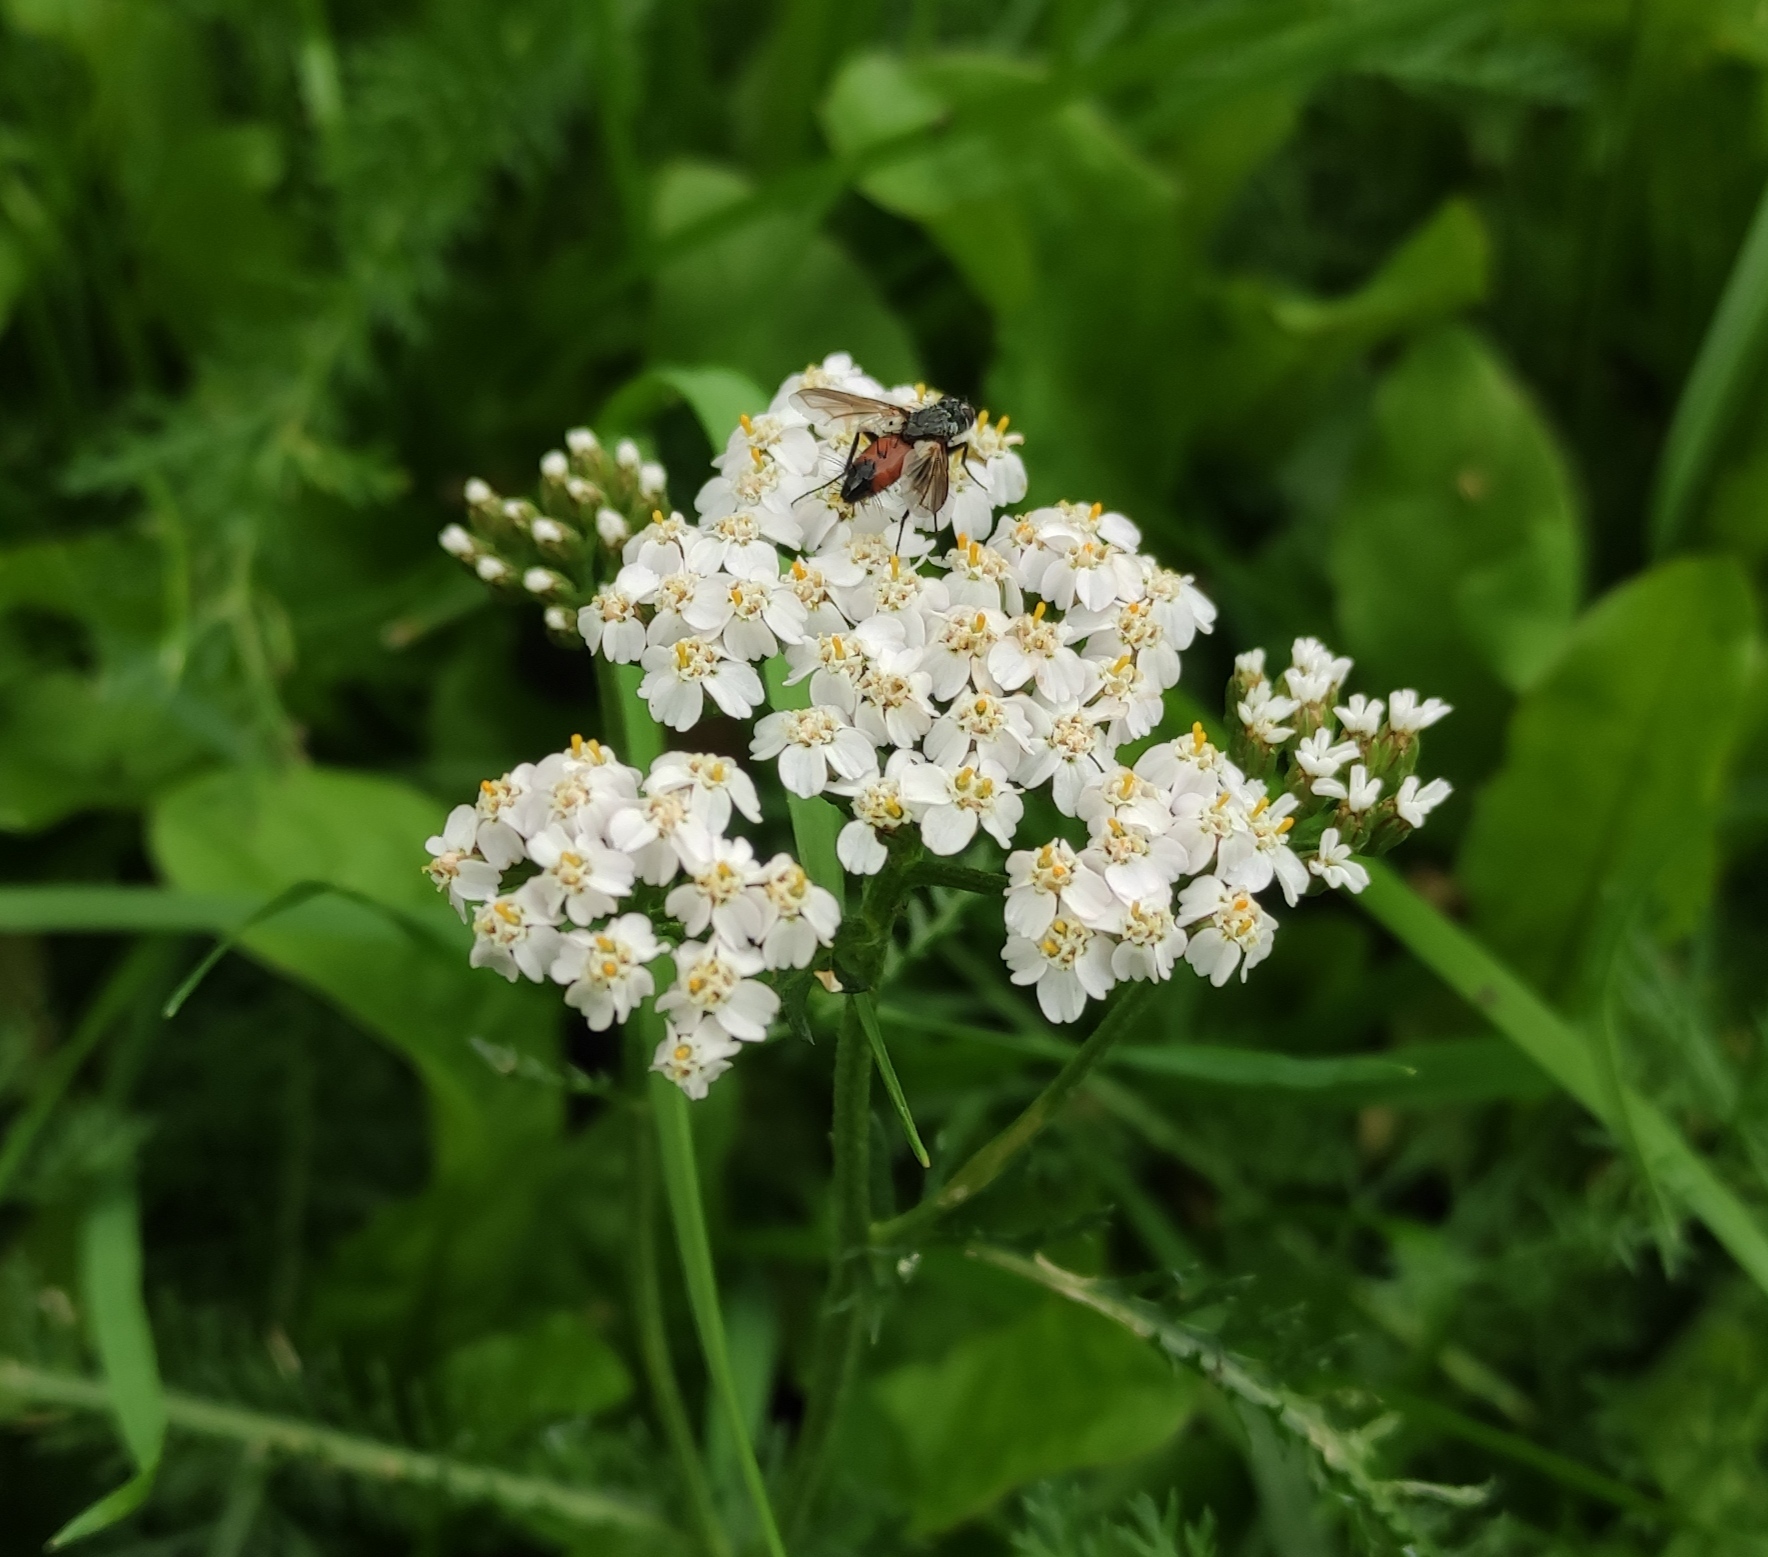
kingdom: Plantae
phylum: Tracheophyta
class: Magnoliopsida
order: Asterales
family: Asteraceae
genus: Achillea
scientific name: Achillea millefolium
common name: Yarrow
